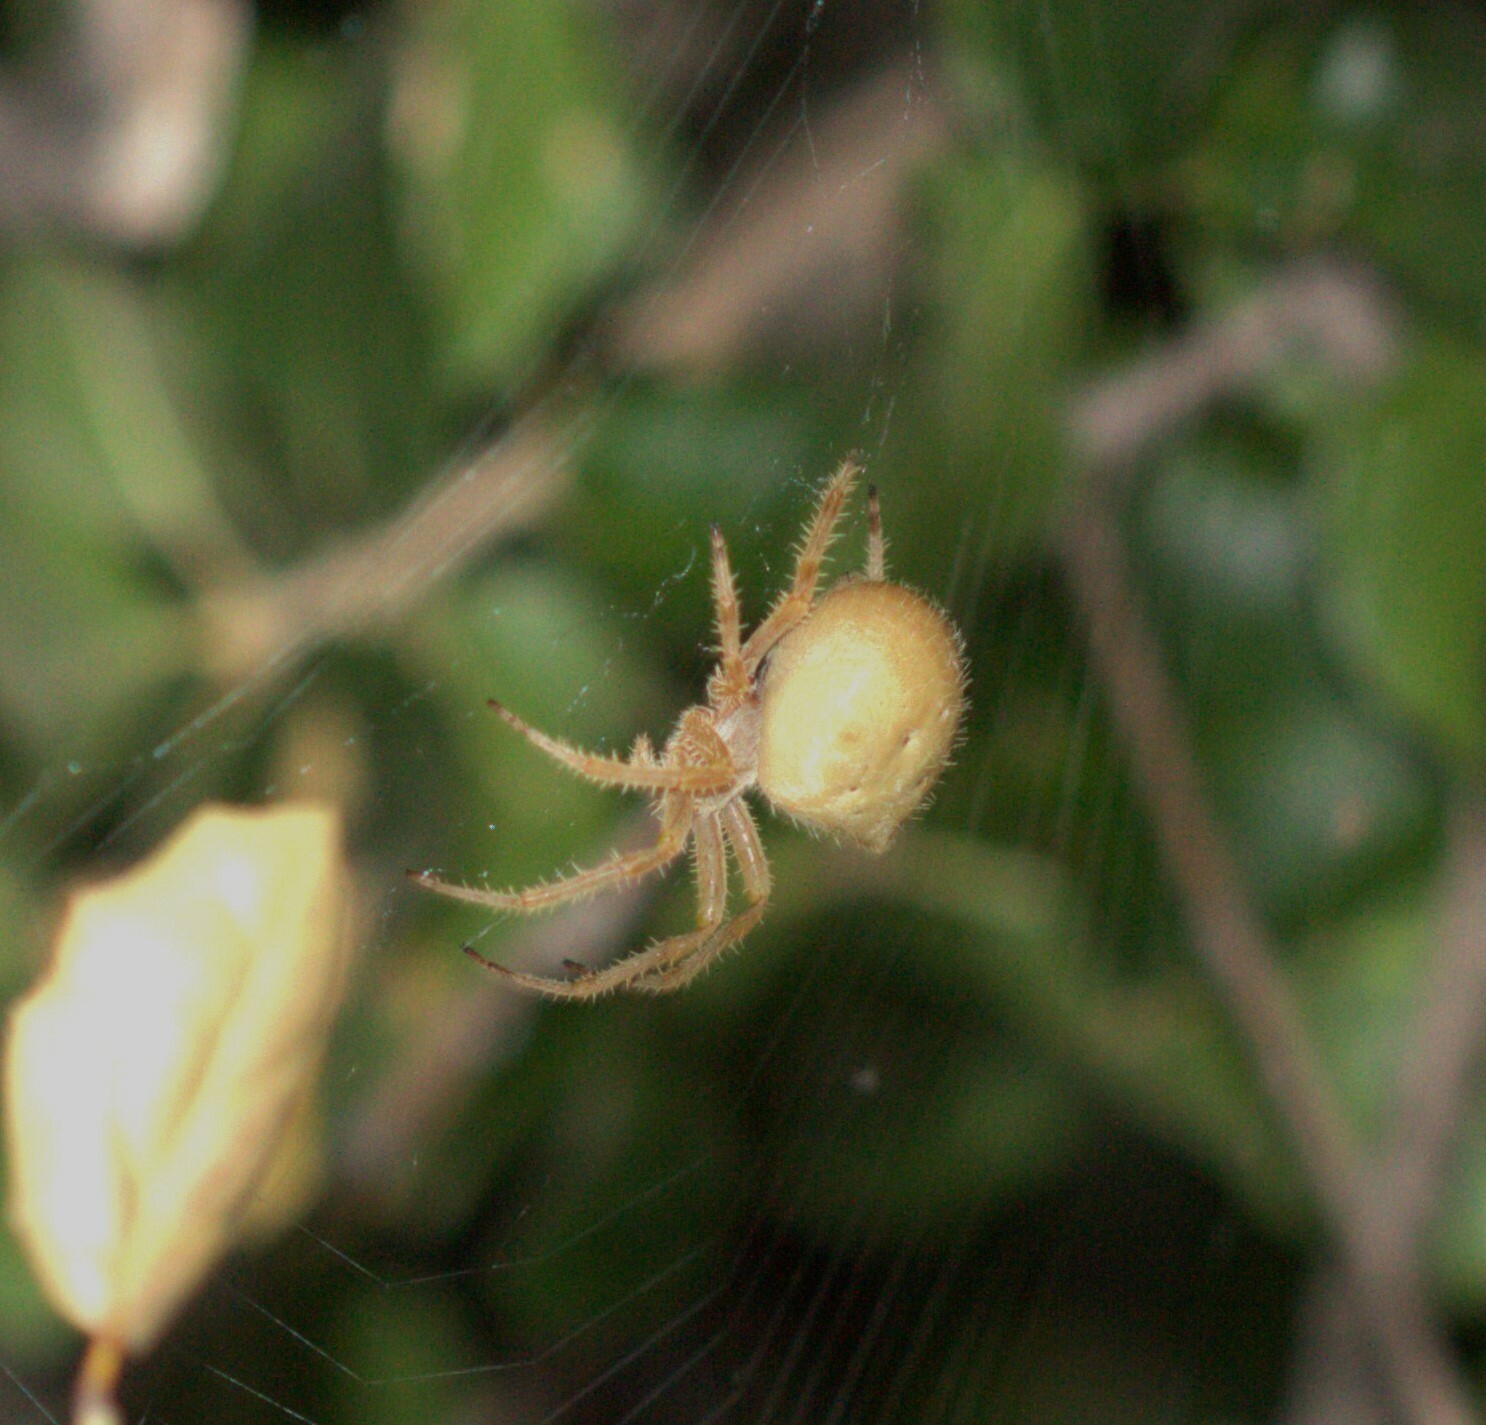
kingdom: Animalia
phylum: Arthropoda
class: Arachnida
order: Araneae
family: Araneidae
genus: Araneus
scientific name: Araneus gemma
